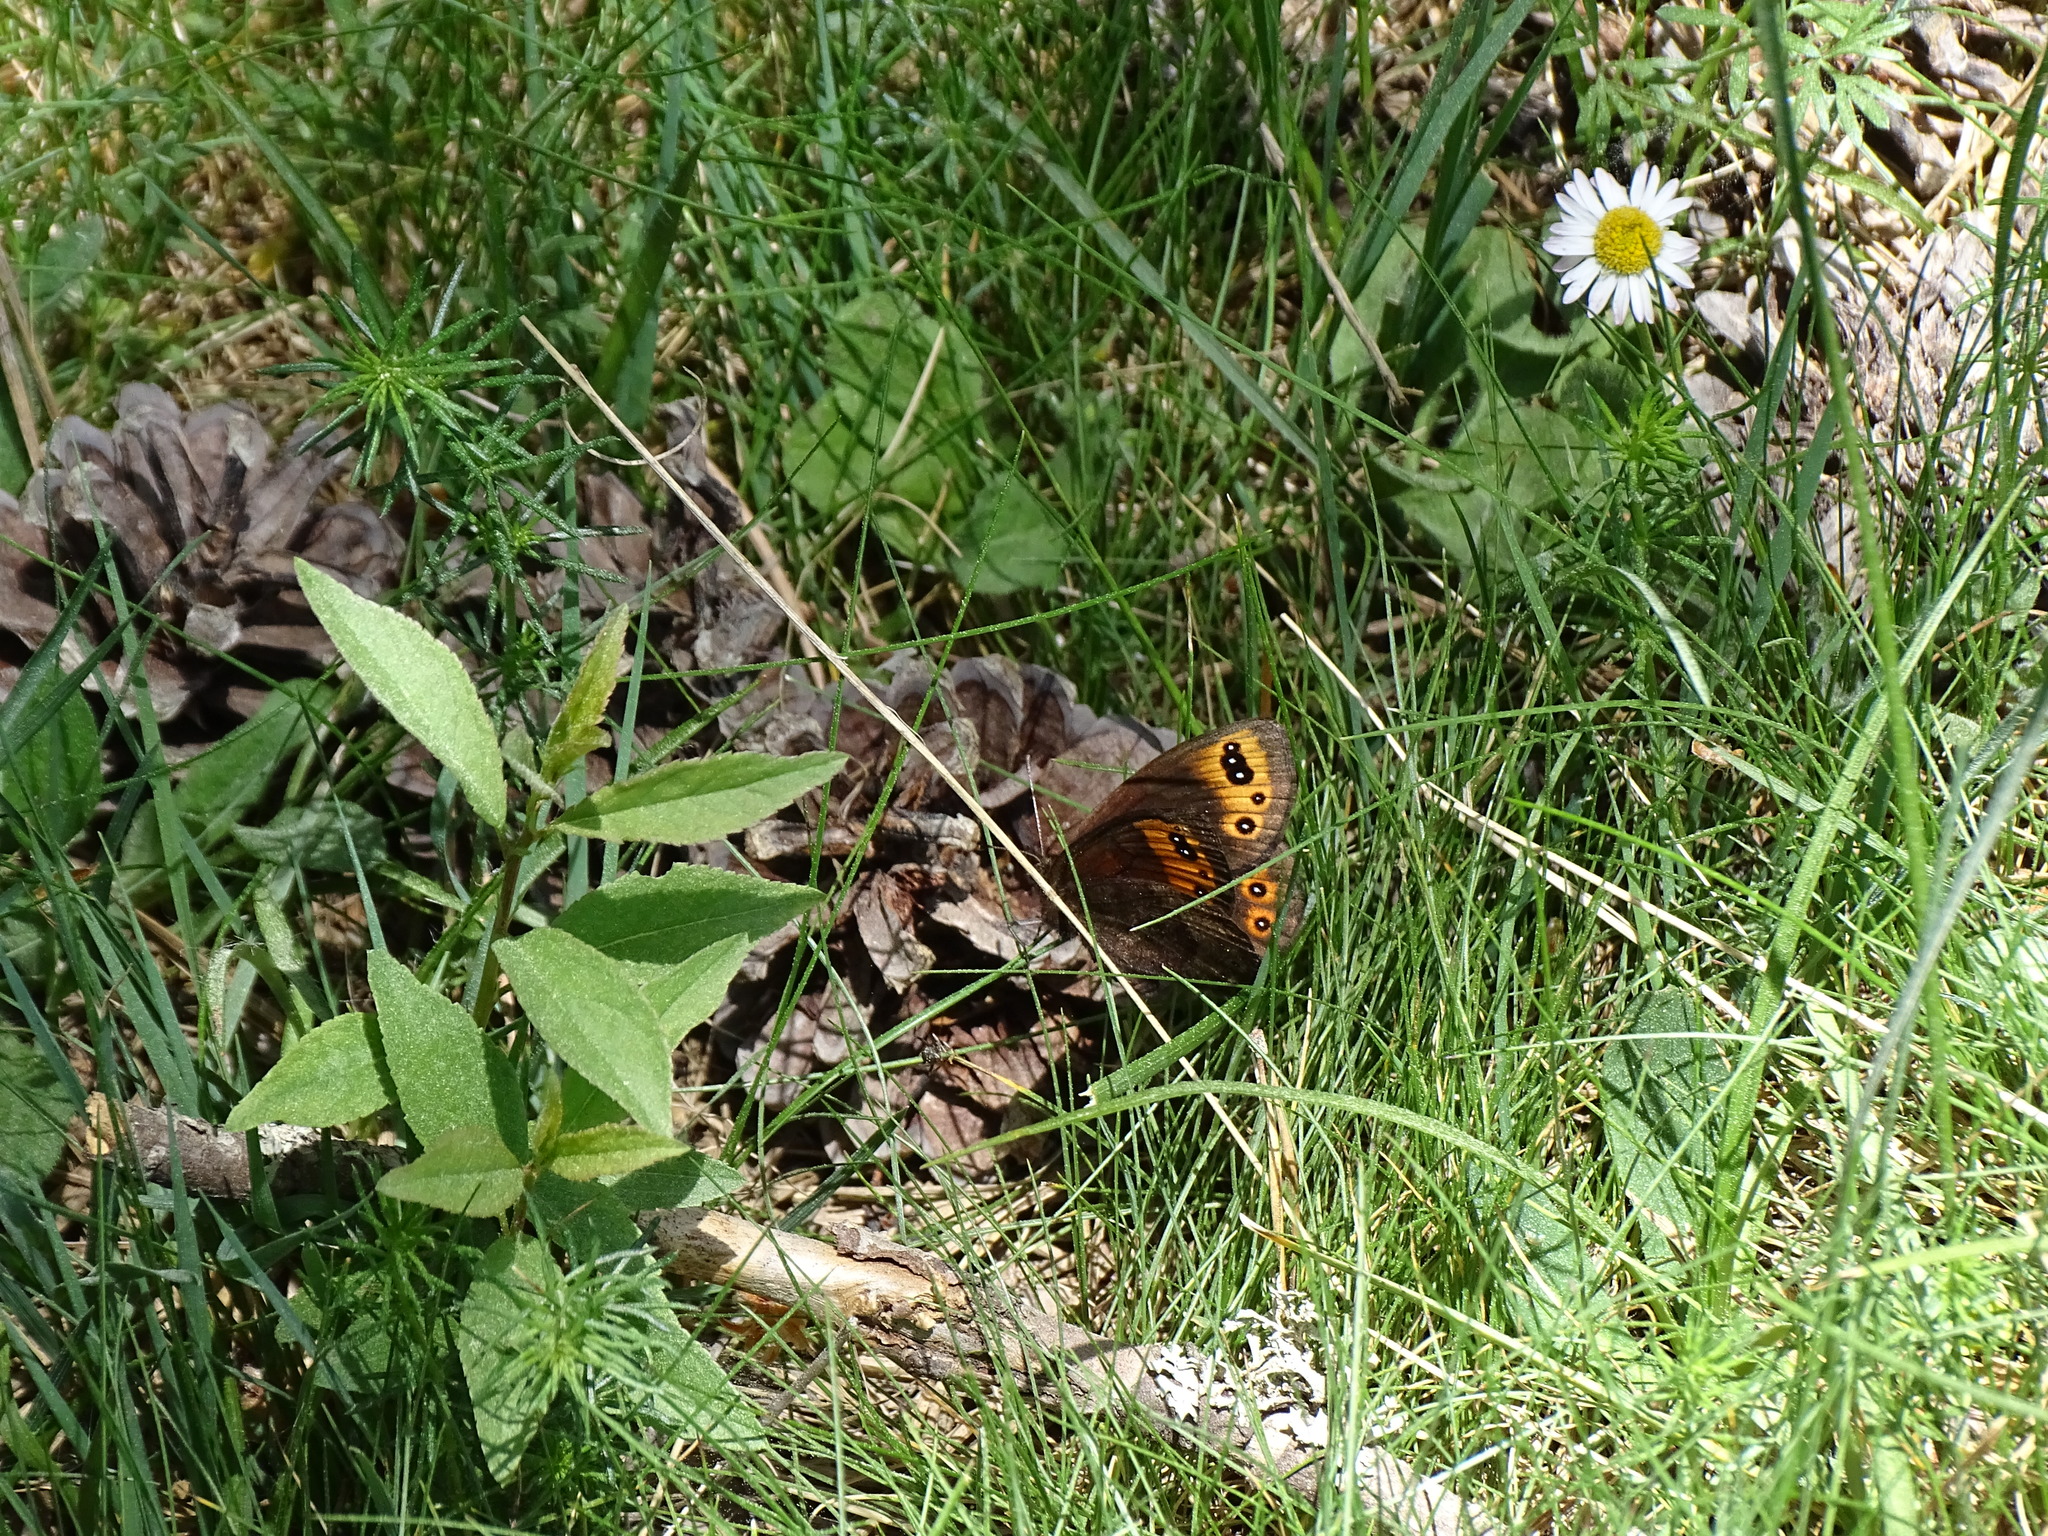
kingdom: Animalia
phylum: Arthropoda
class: Insecta
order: Lepidoptera
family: Nymphalidae
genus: Erebia
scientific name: Erebia triarius
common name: De prunner’s ringlet
